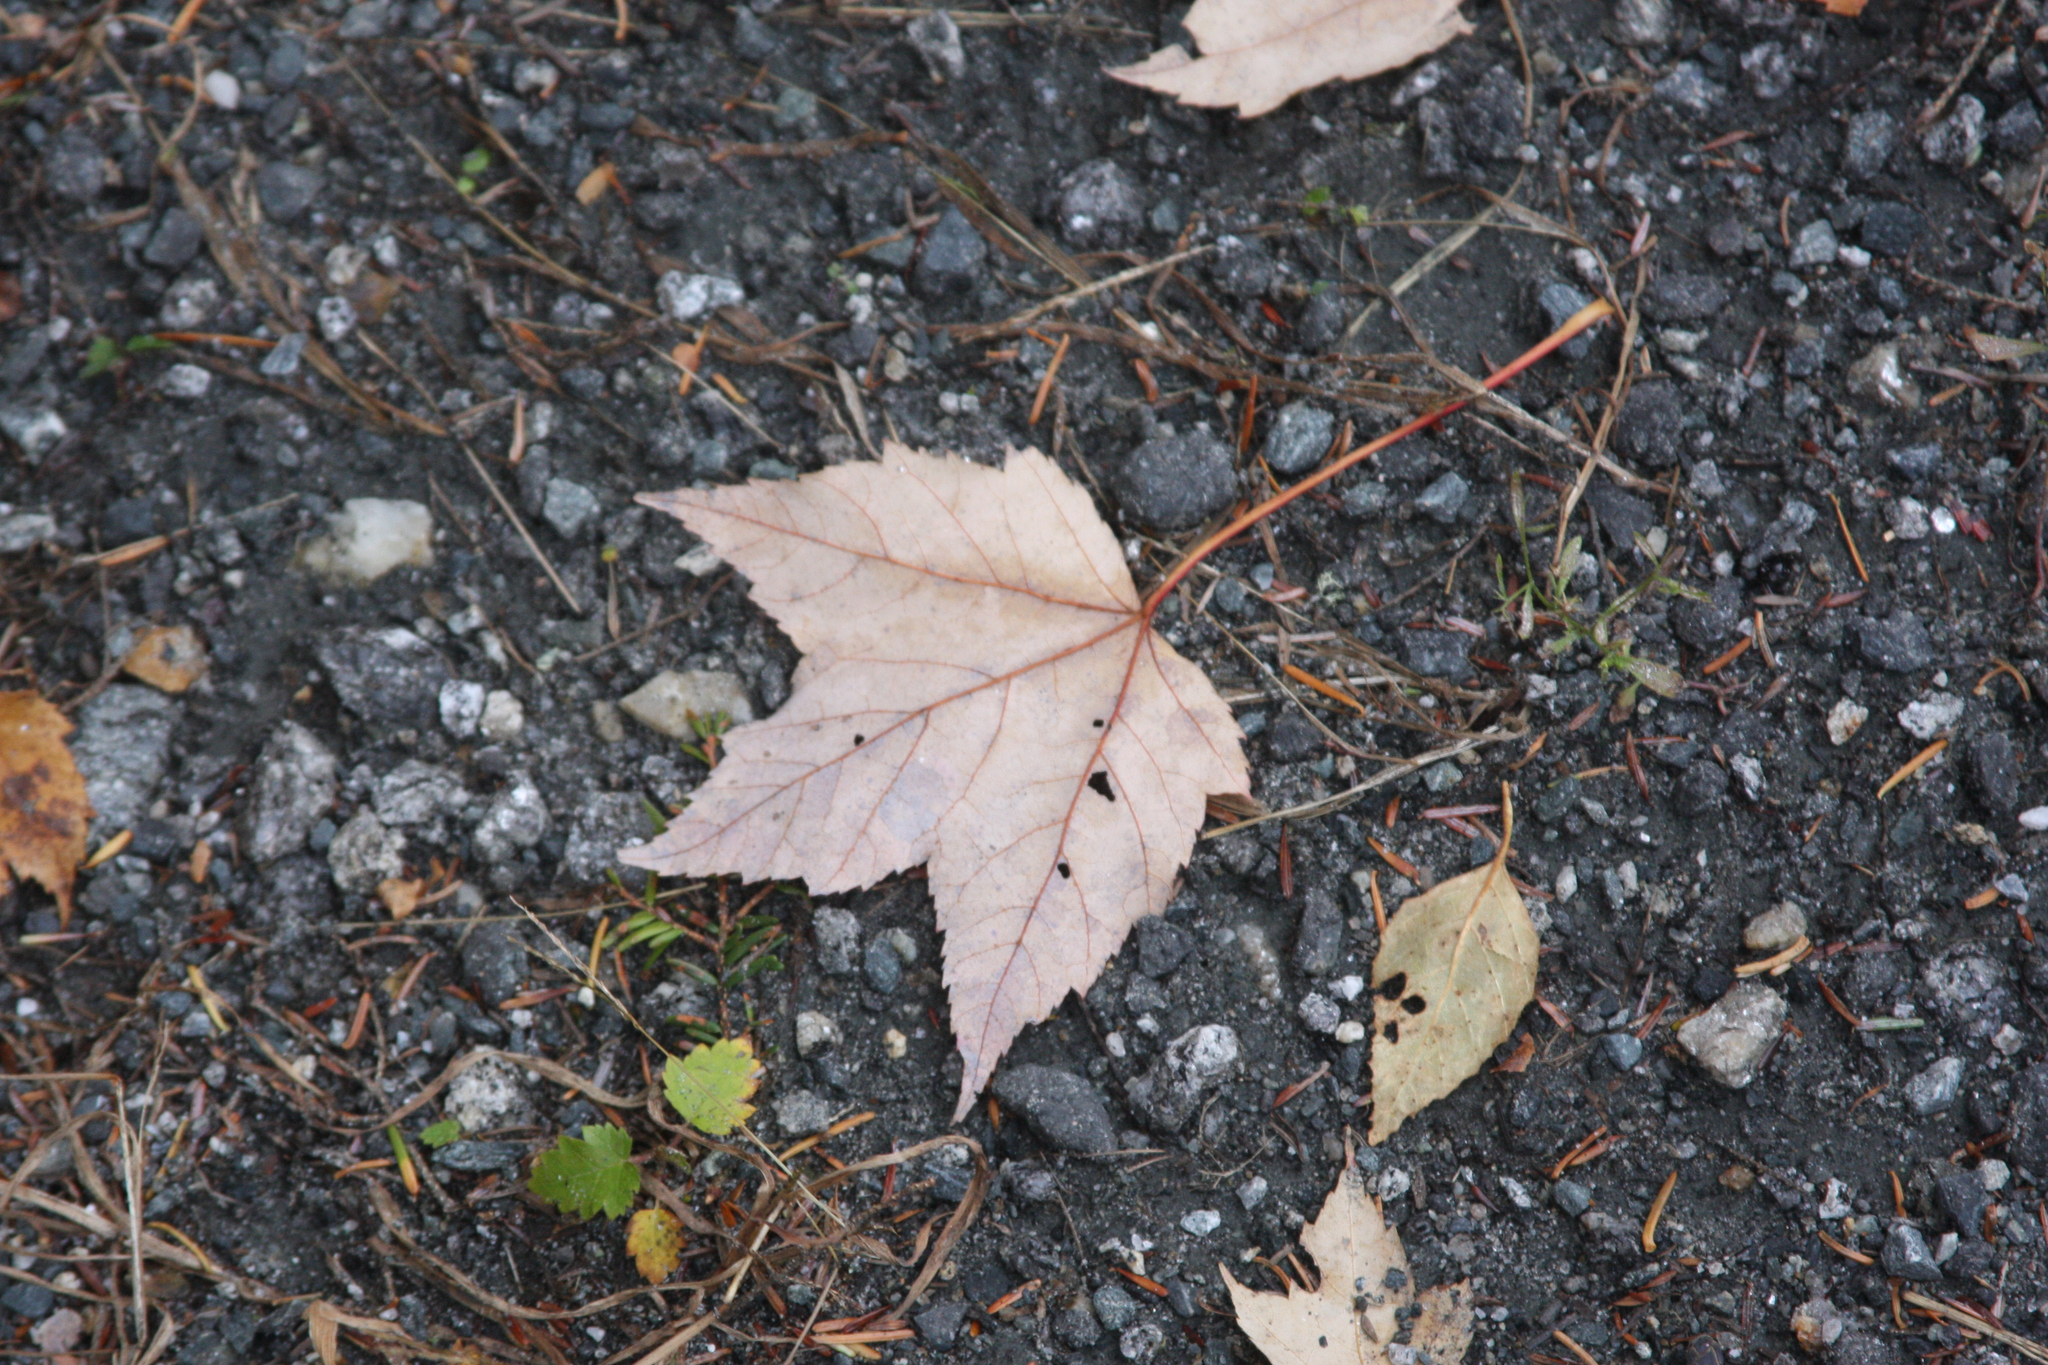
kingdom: Plantae
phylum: Tracheophyta
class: Magnoliopsida
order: Sapindales
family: Sapindaceae
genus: Acer
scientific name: Acer rubrum
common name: Red maple
